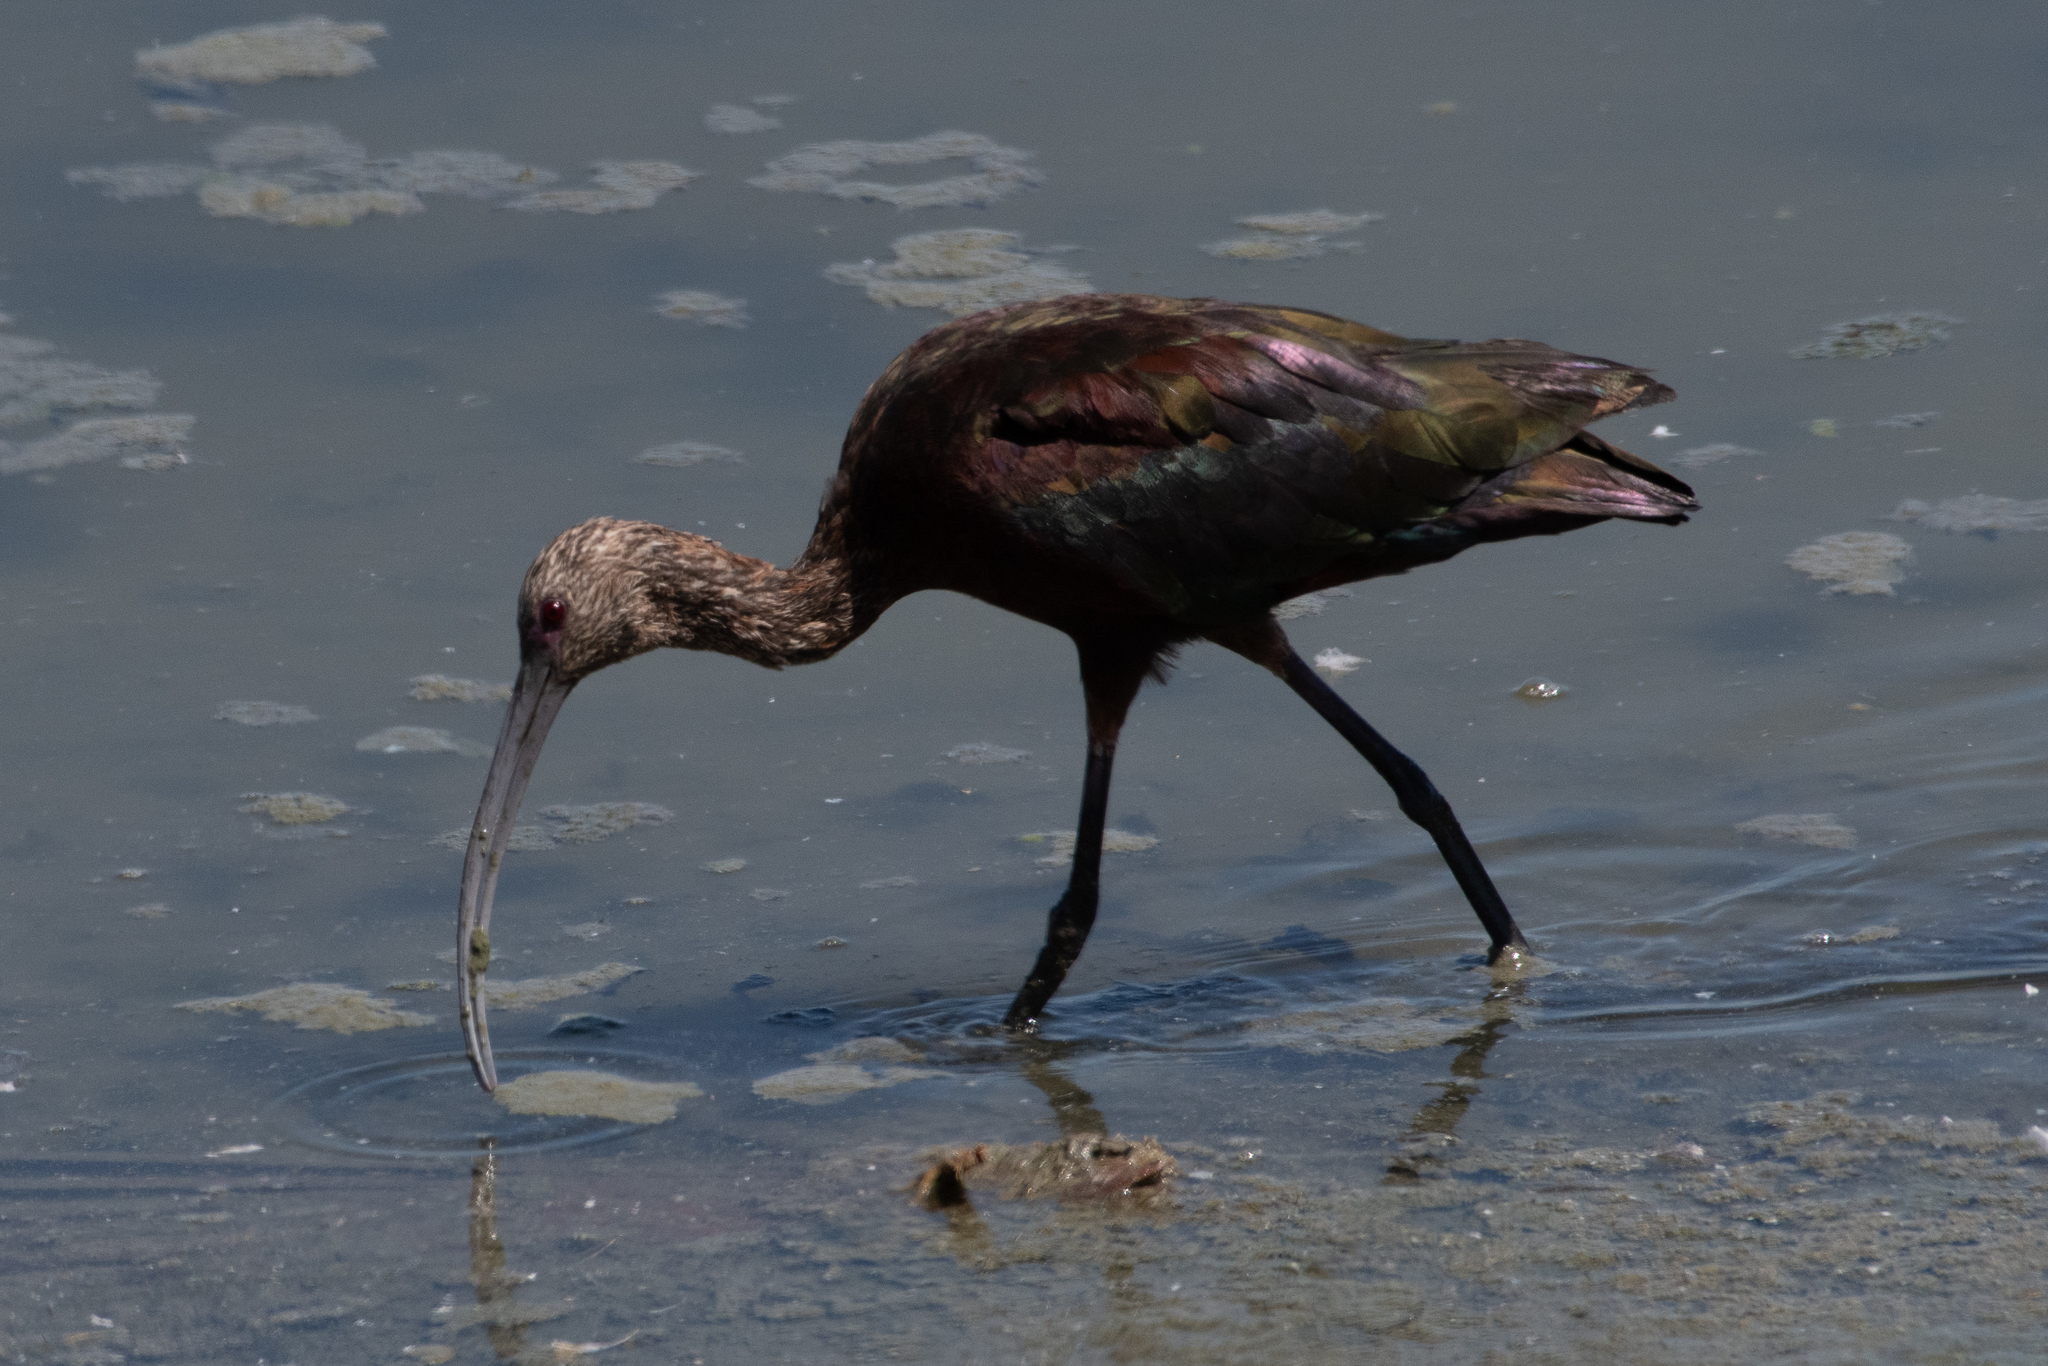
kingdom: Animalia
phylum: Chordata
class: Aves
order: Pelecaniformes
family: Threskiornithidae
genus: Plegadis
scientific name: Plegadis chihi
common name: White-faced ibis
